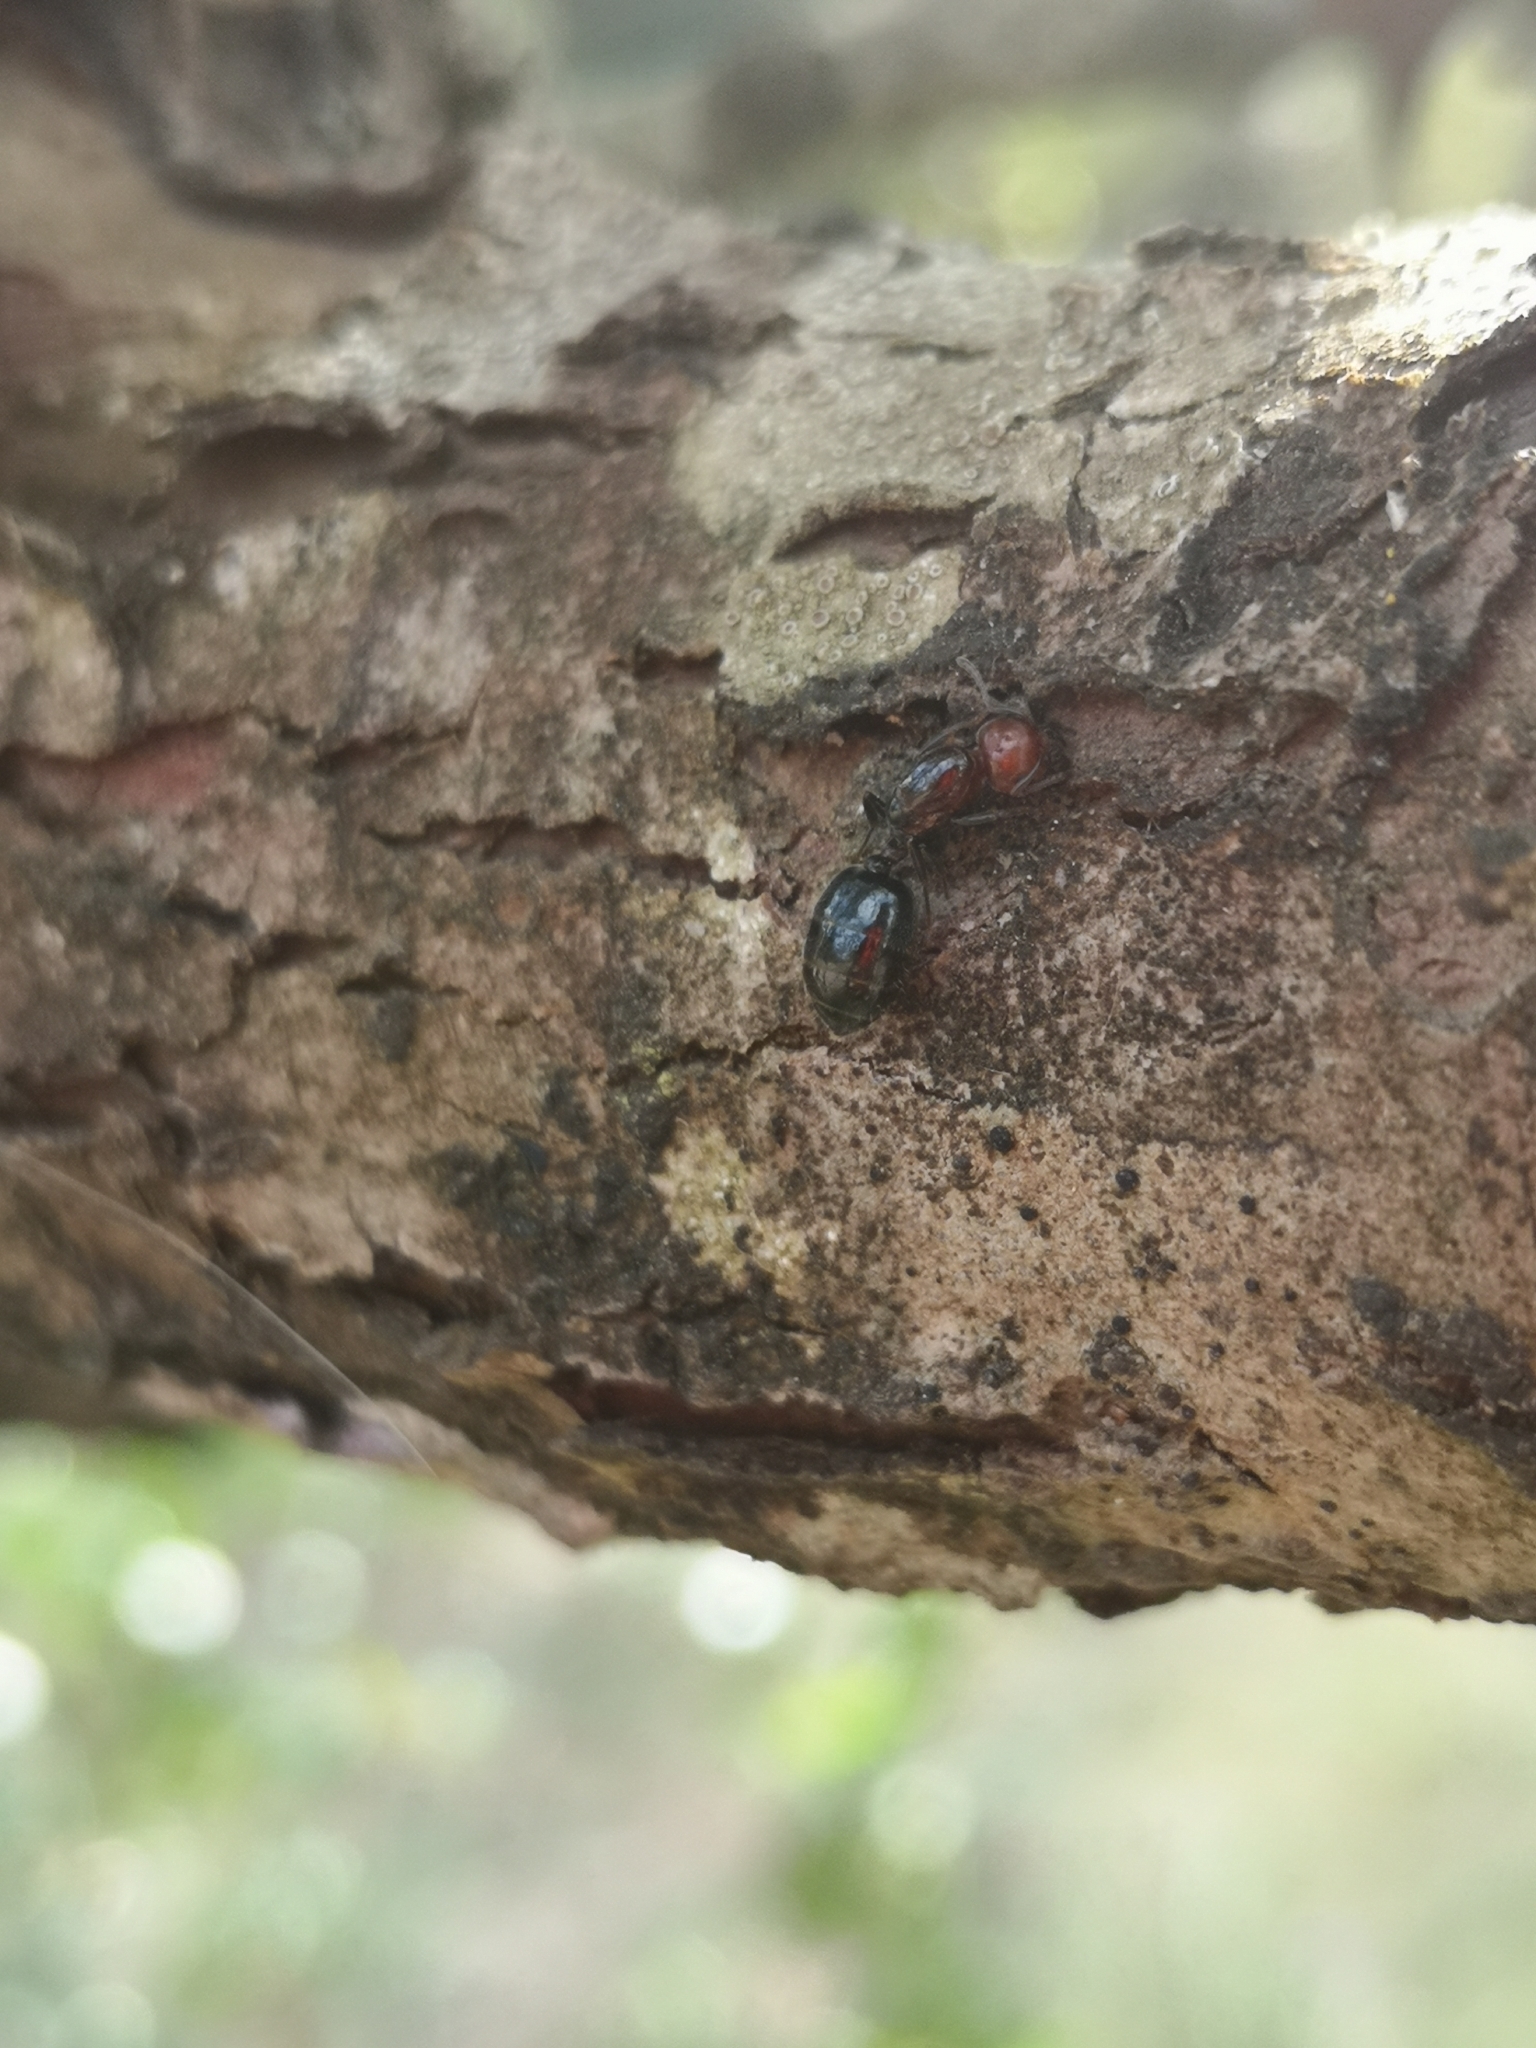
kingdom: Animalia
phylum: Arthropoda
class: Insecta
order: Hymenoptera
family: Formicidae
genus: Crematogaster
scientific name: Crematogaster scutellaris
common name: Fourmi du liège
